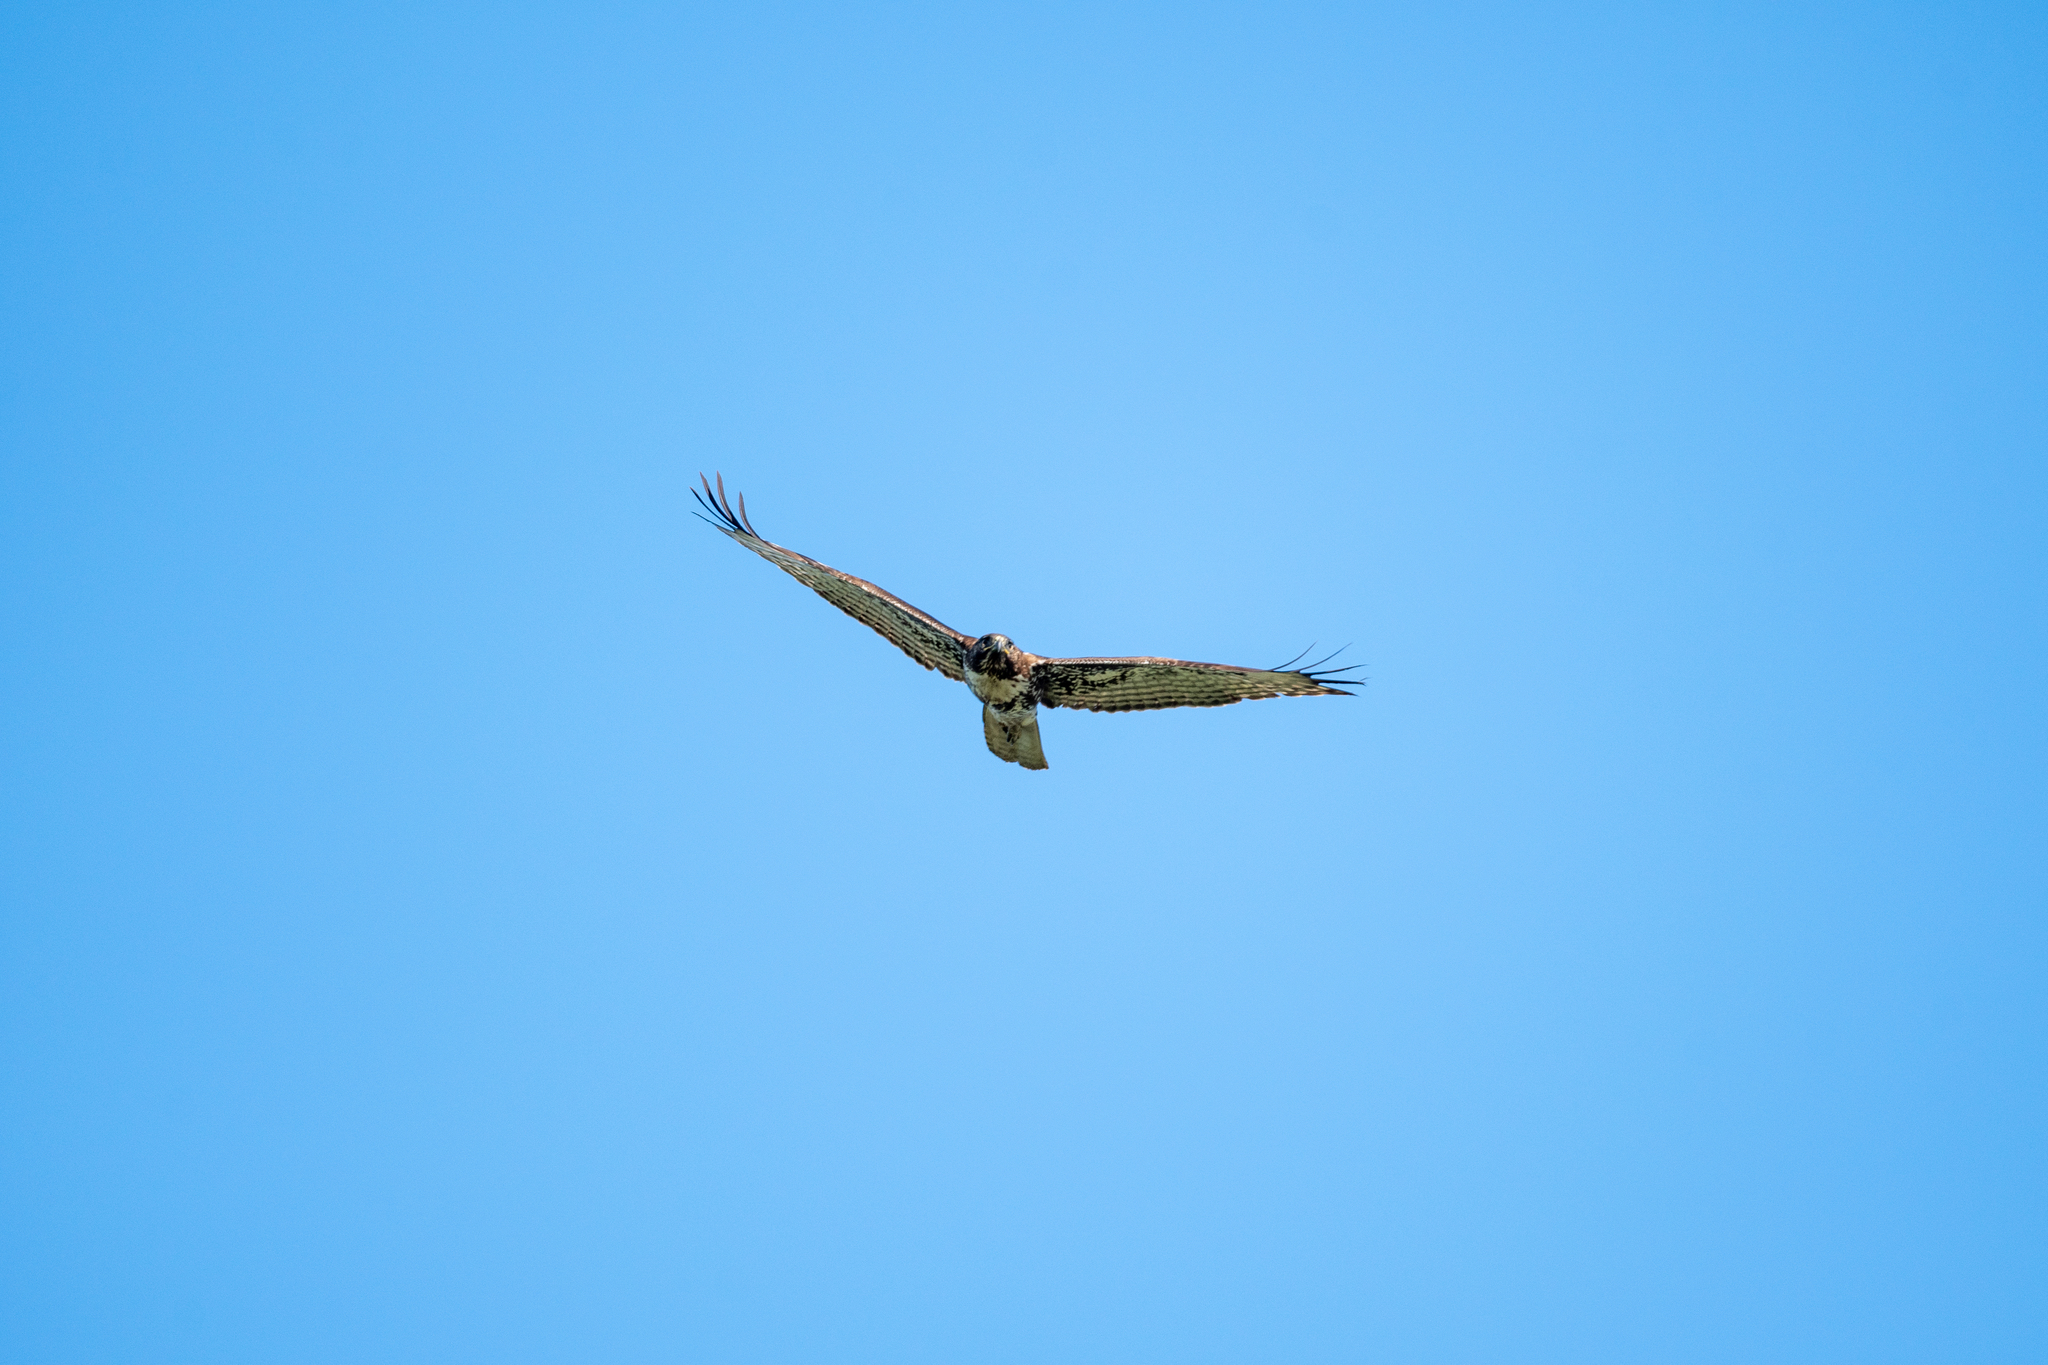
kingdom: Animalia
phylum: Chordata
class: Aves
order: Accipitriformes
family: Accipitridae
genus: Buteo
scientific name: Buteo jamaicensis
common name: Red-tailed hawk
